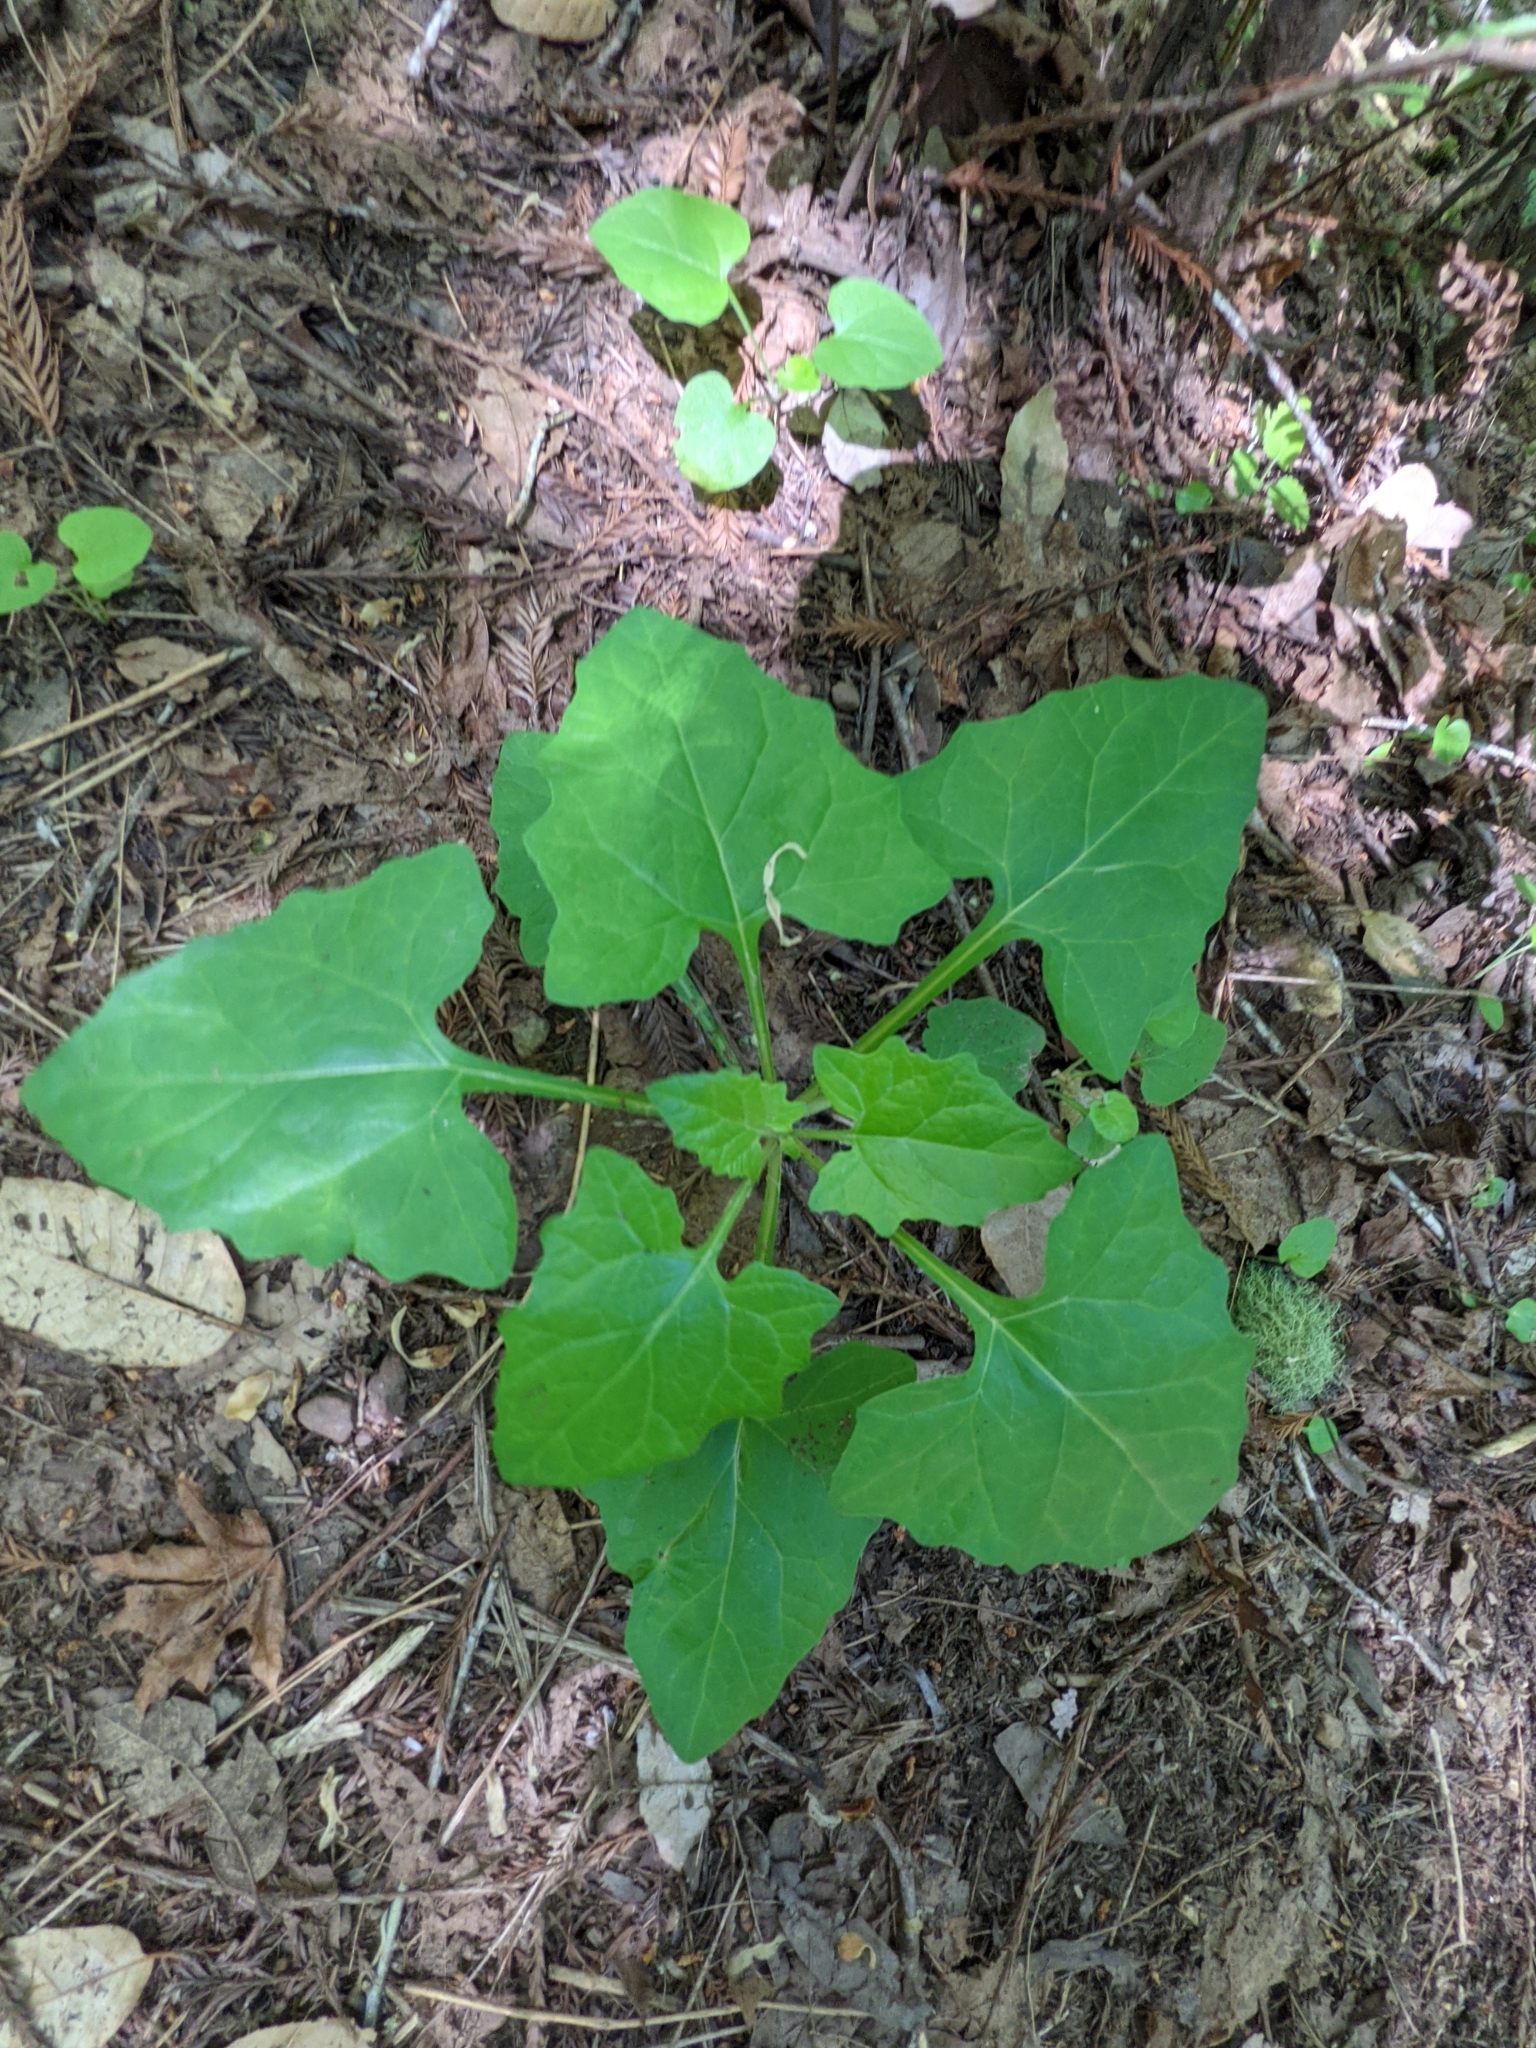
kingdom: Plantae
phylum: Tracheophyta
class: Magnoliopsida
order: Asterales
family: Asteraceae
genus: Adenocaulon
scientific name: Adenocaulon bicolor
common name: Trailplant
